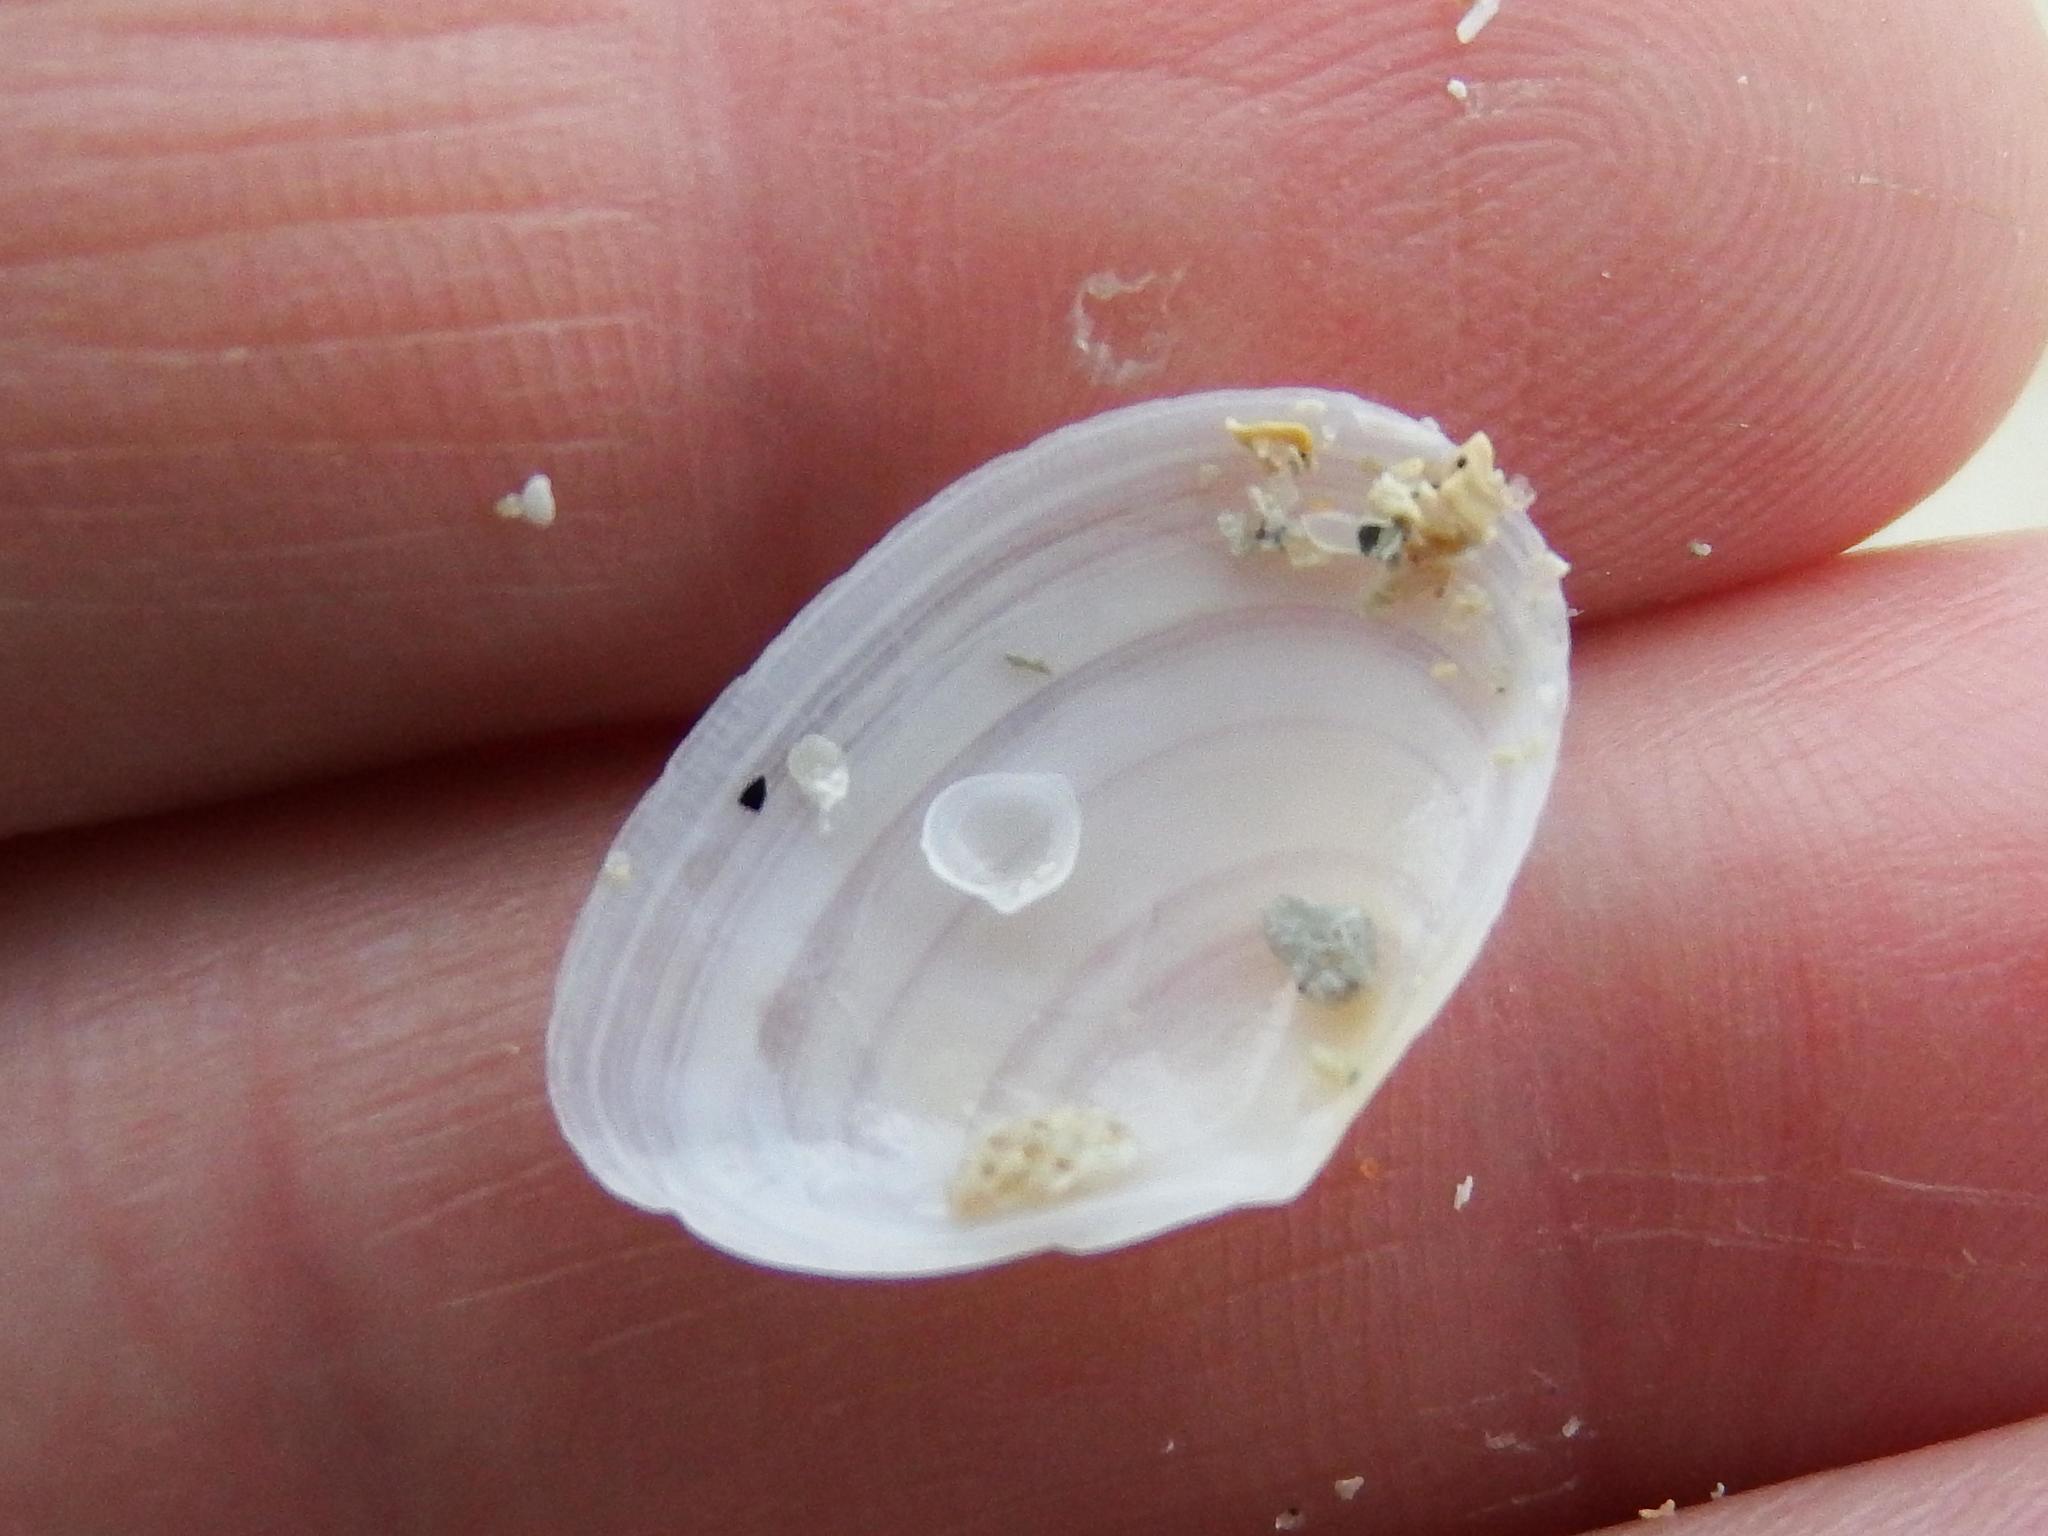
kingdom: Animalia
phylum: Mollusca
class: Bivalvia
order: Cardiida
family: Tellinidae
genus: Macomangulus
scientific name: Macomangulus tenuis
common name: Thin tellin
